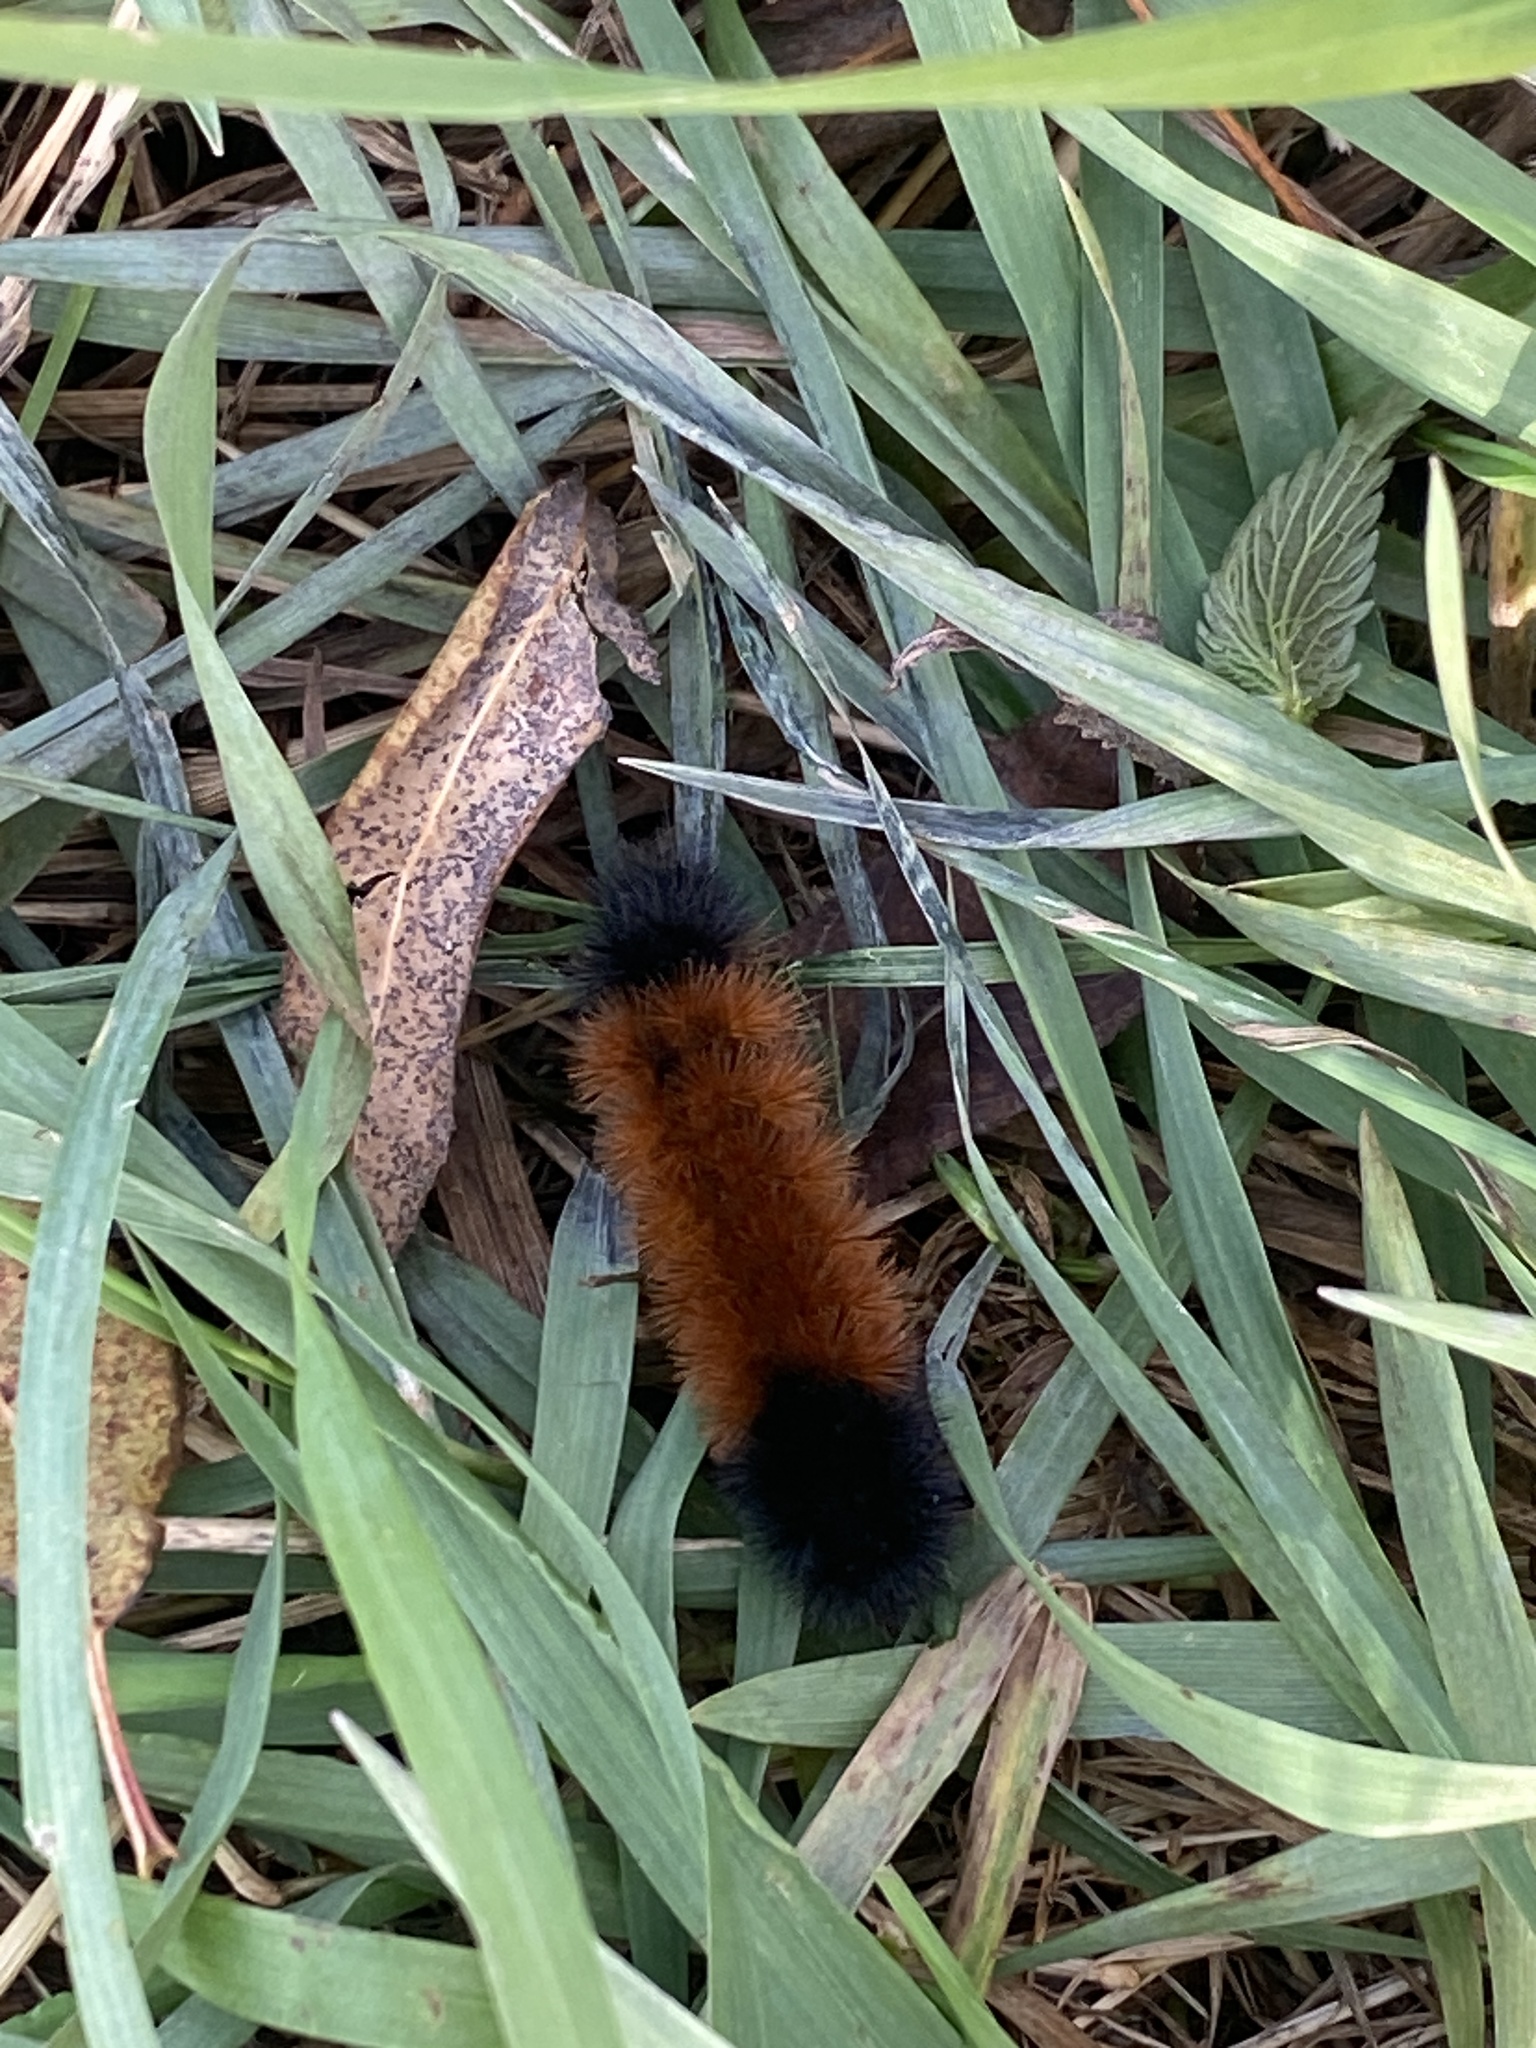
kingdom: Animalia
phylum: Arthropoda
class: Insecta
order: Lepidoptera
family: Erebidae
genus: Pyrrharctia
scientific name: Pyrrharctia isabella
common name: Isabella tiger moth
